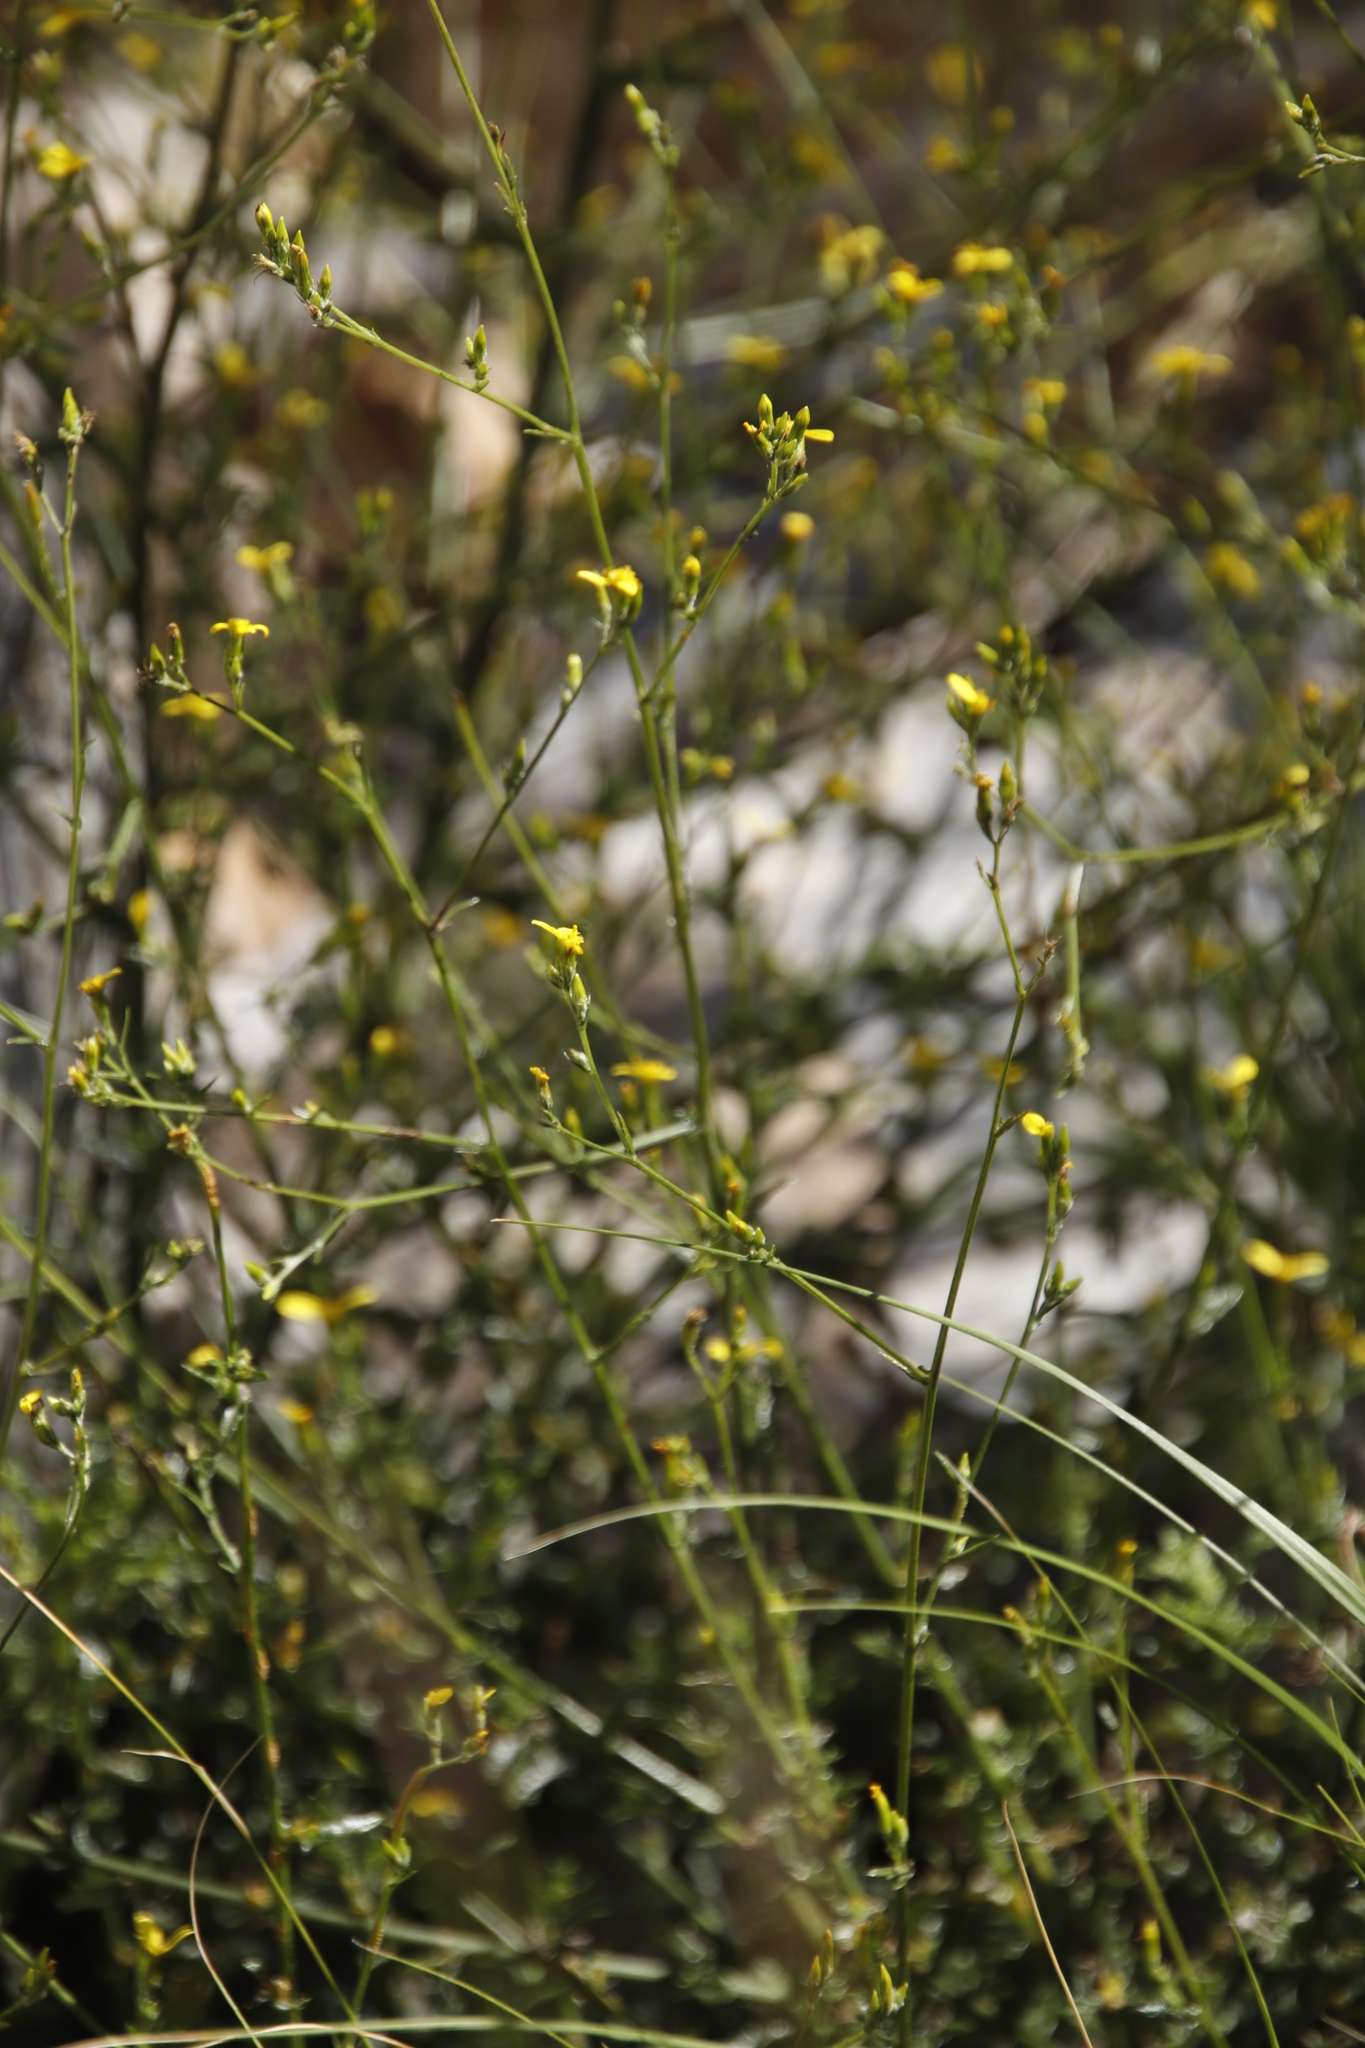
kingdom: Plantae
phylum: Tracheophyta
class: Magnoliopsida
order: Asterales
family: Asteraceae
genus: Senecio
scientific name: Senecio pubigerus
